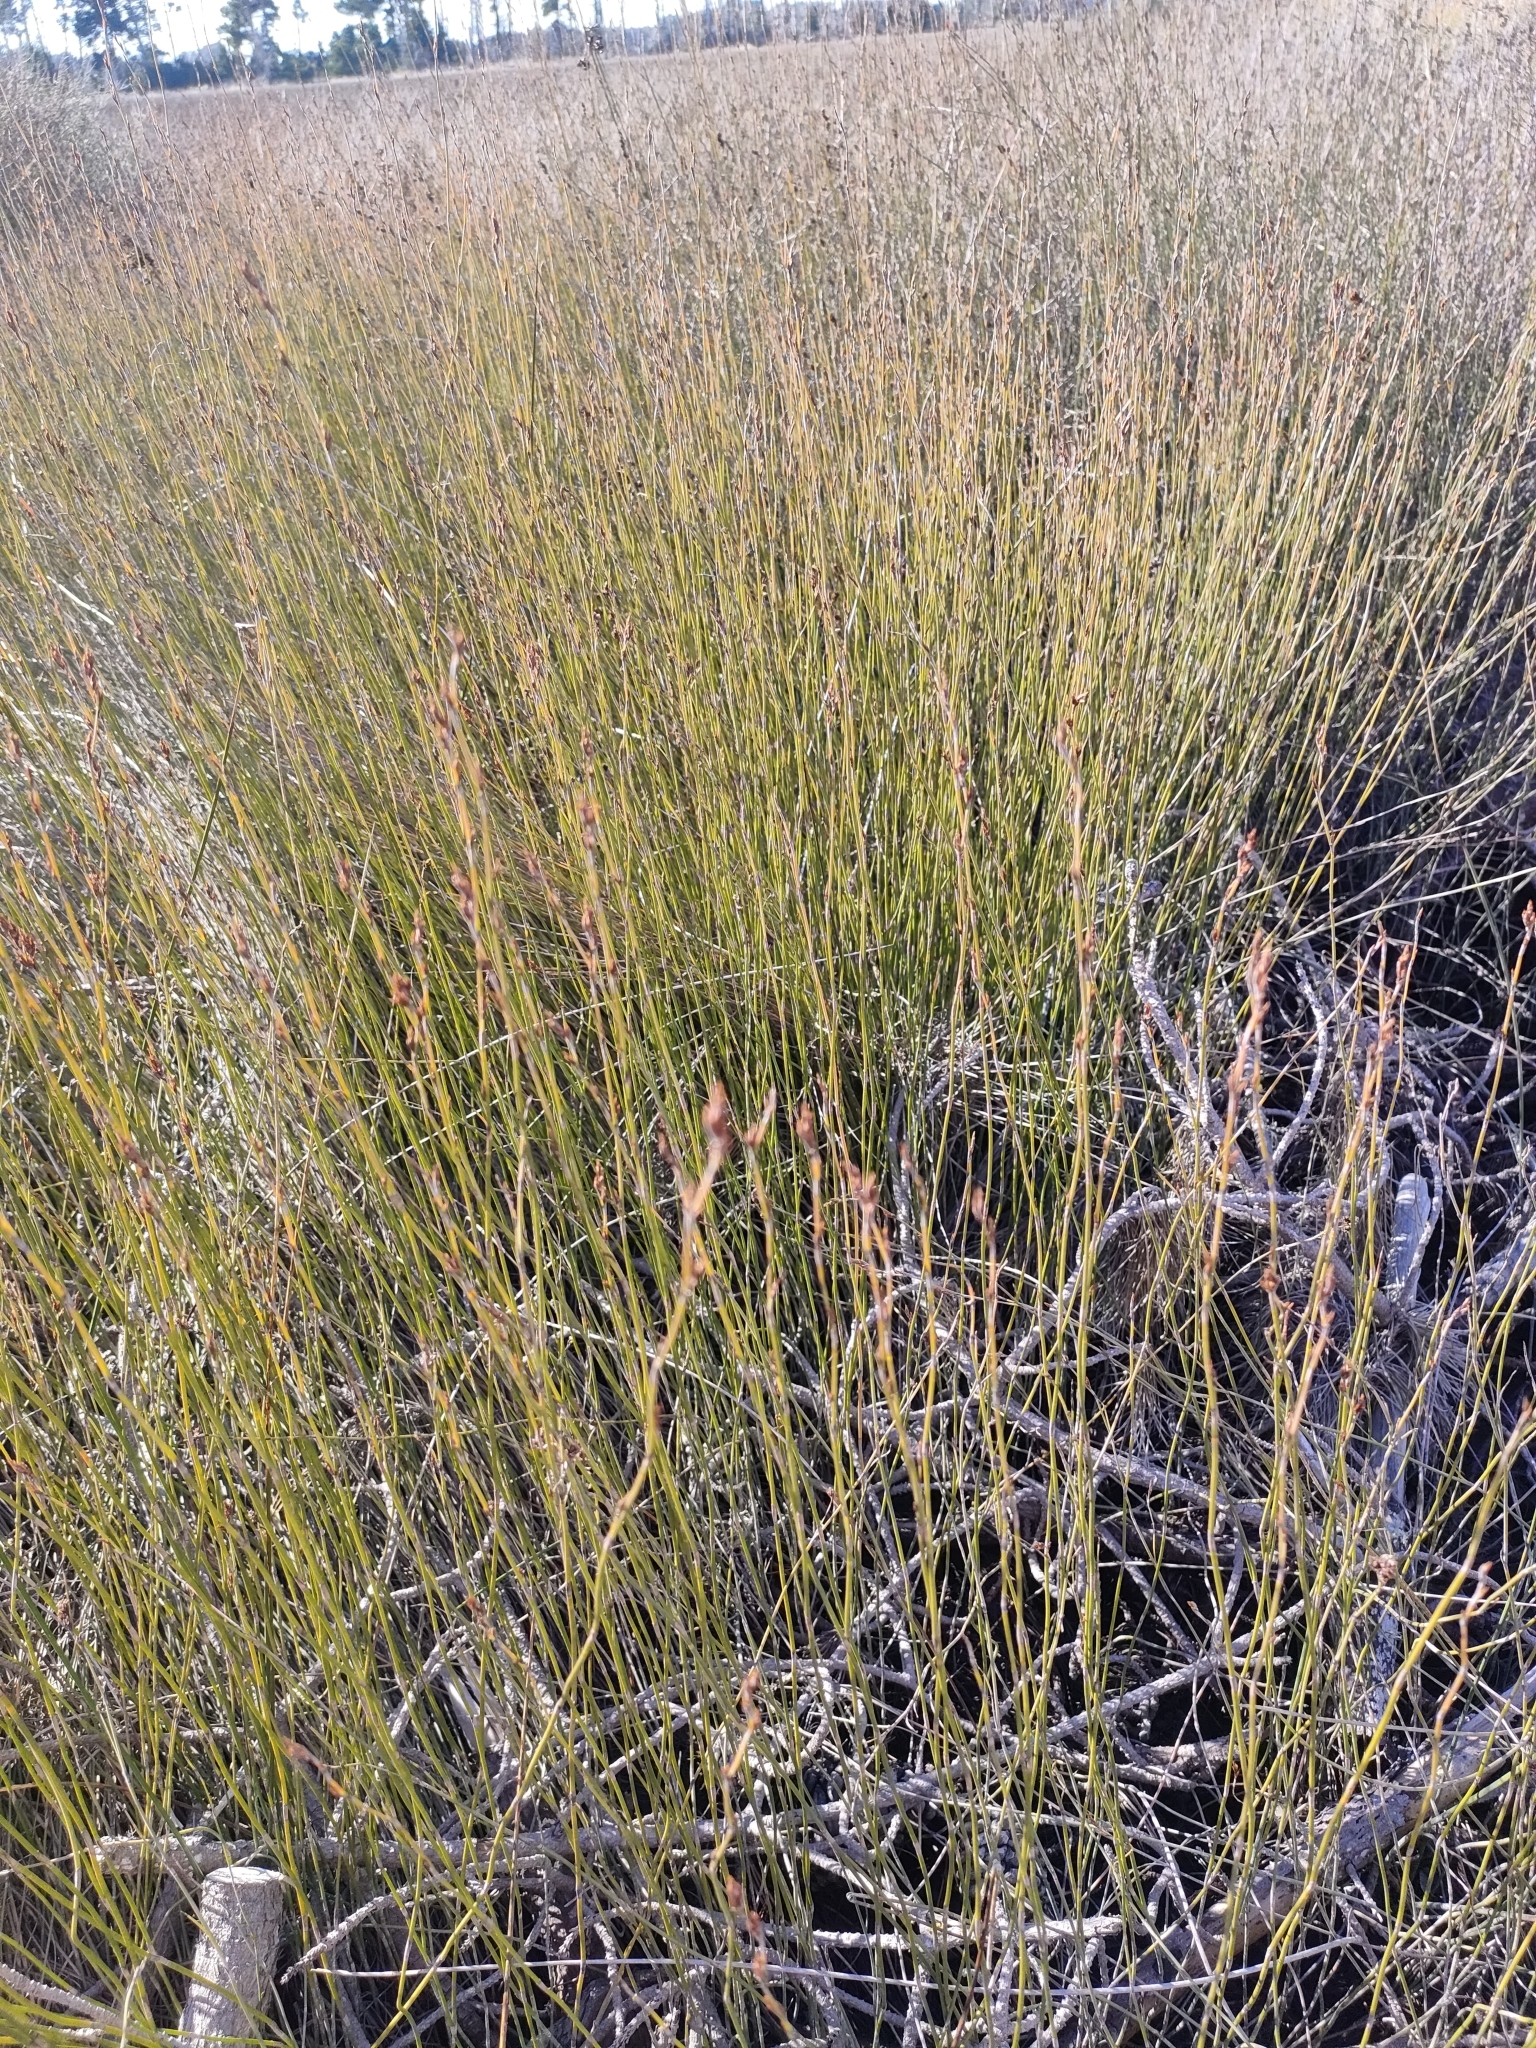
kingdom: Plantae
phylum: Tracheophyta
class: Liliopsida
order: Poales
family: Restionaceae
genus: Apodasmia
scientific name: Apodasmia similis
